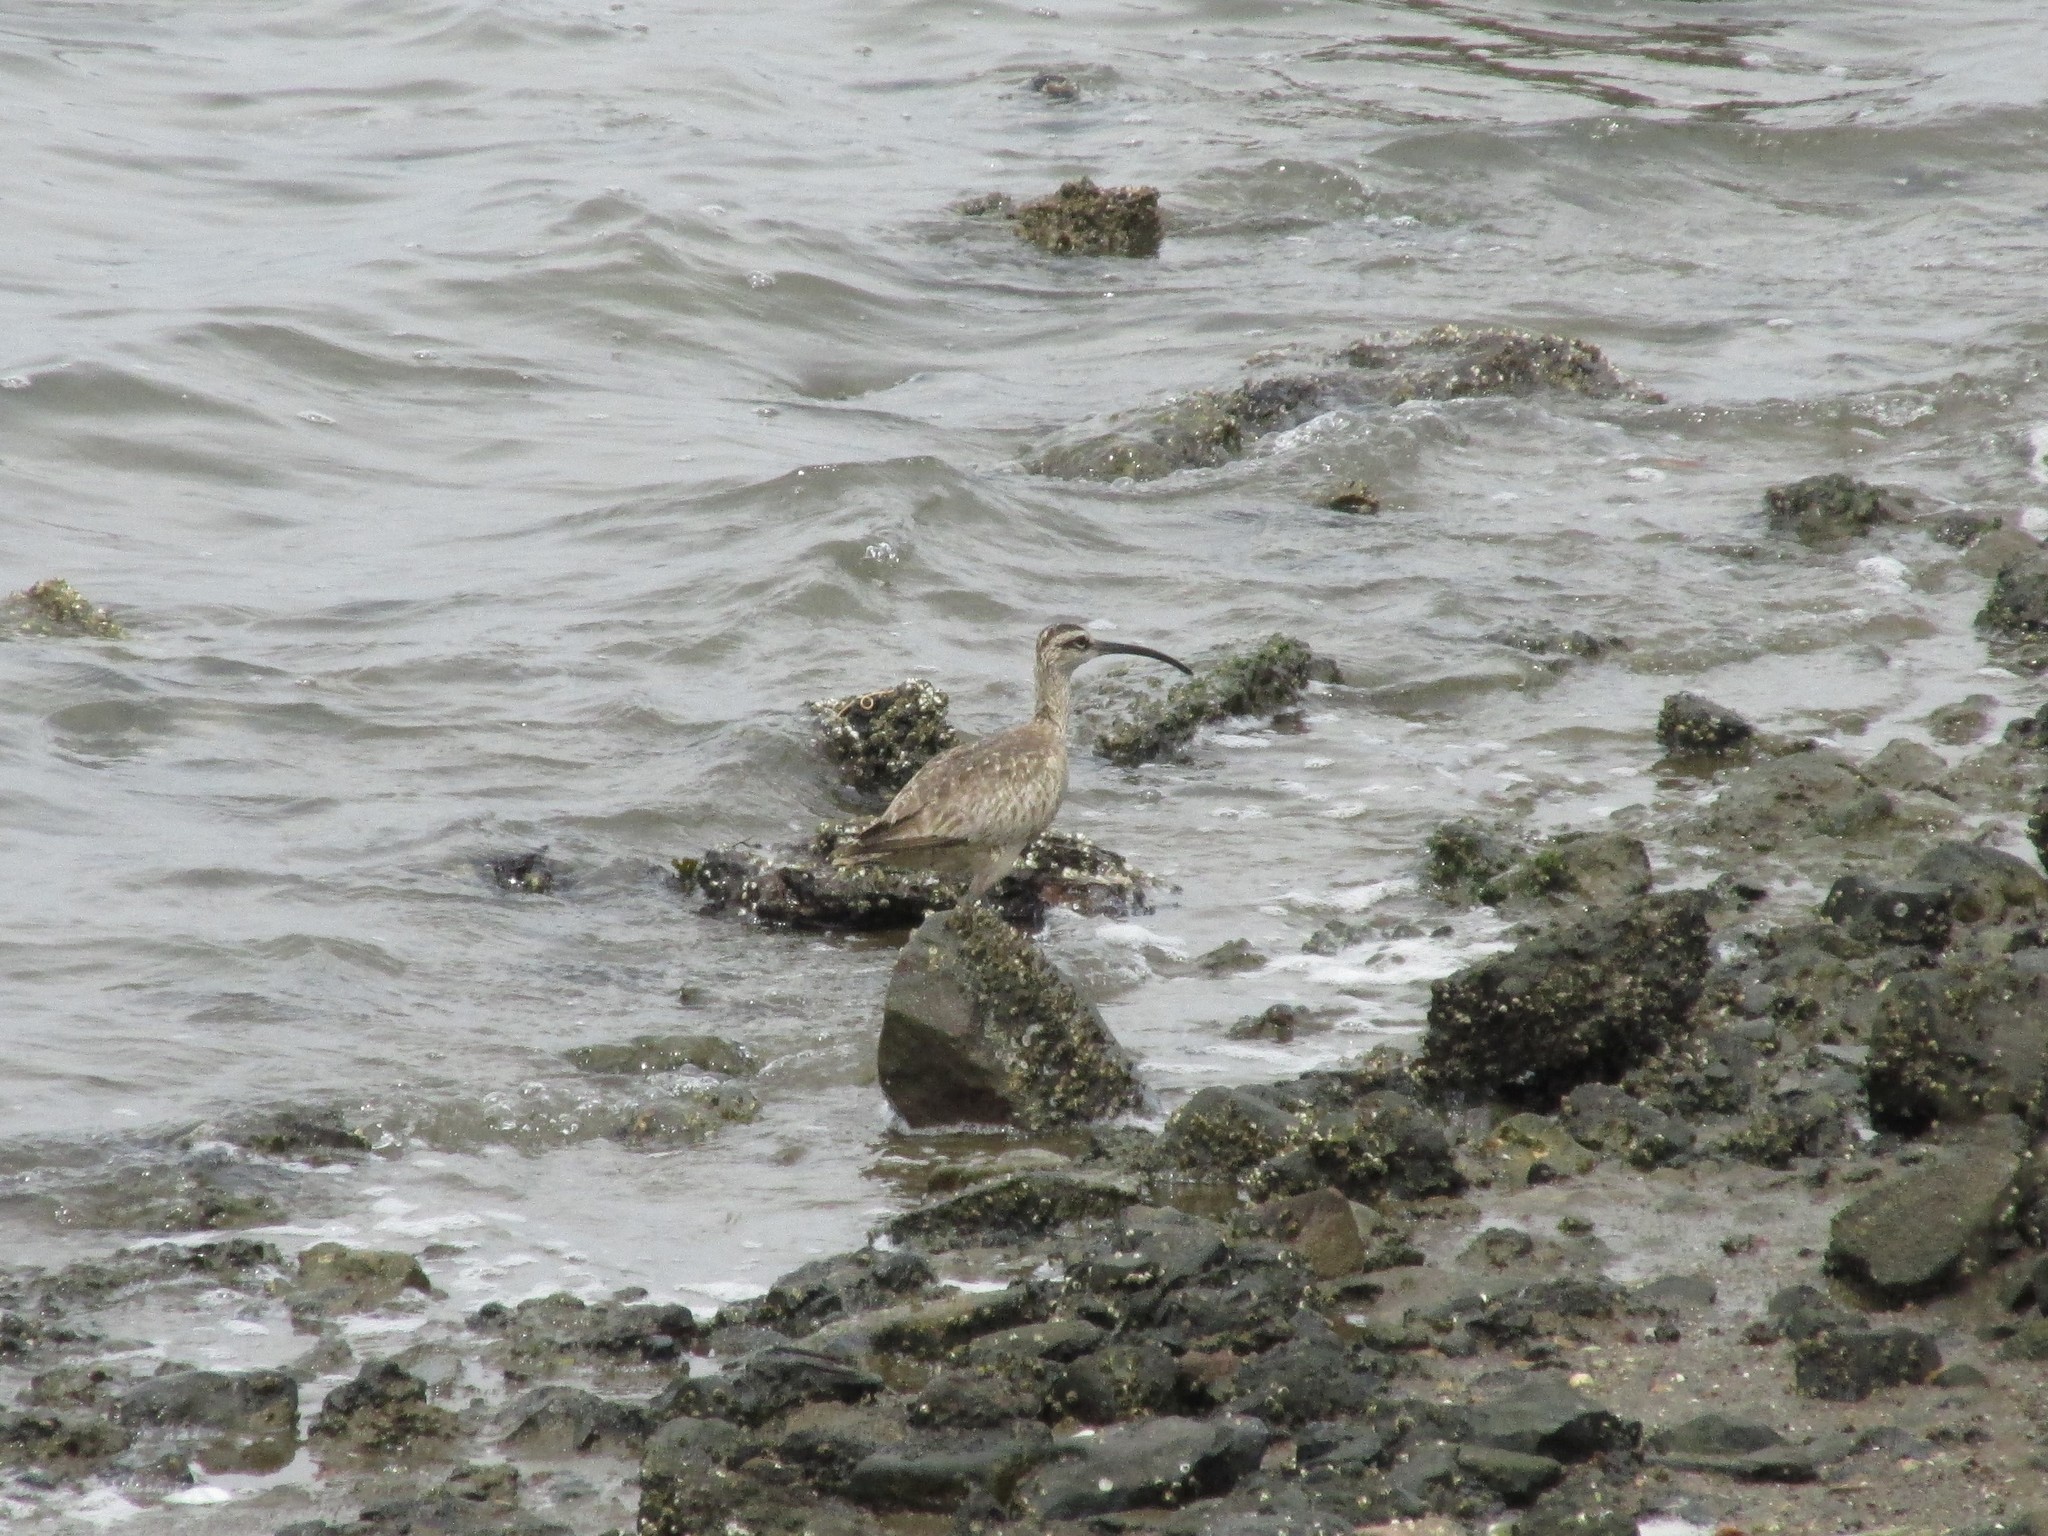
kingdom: Animalia
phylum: Chordata
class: Aves
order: Charadriiformes
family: Scolopacidae
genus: Numenius
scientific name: Numenius phaeopus
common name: Whimbrel
